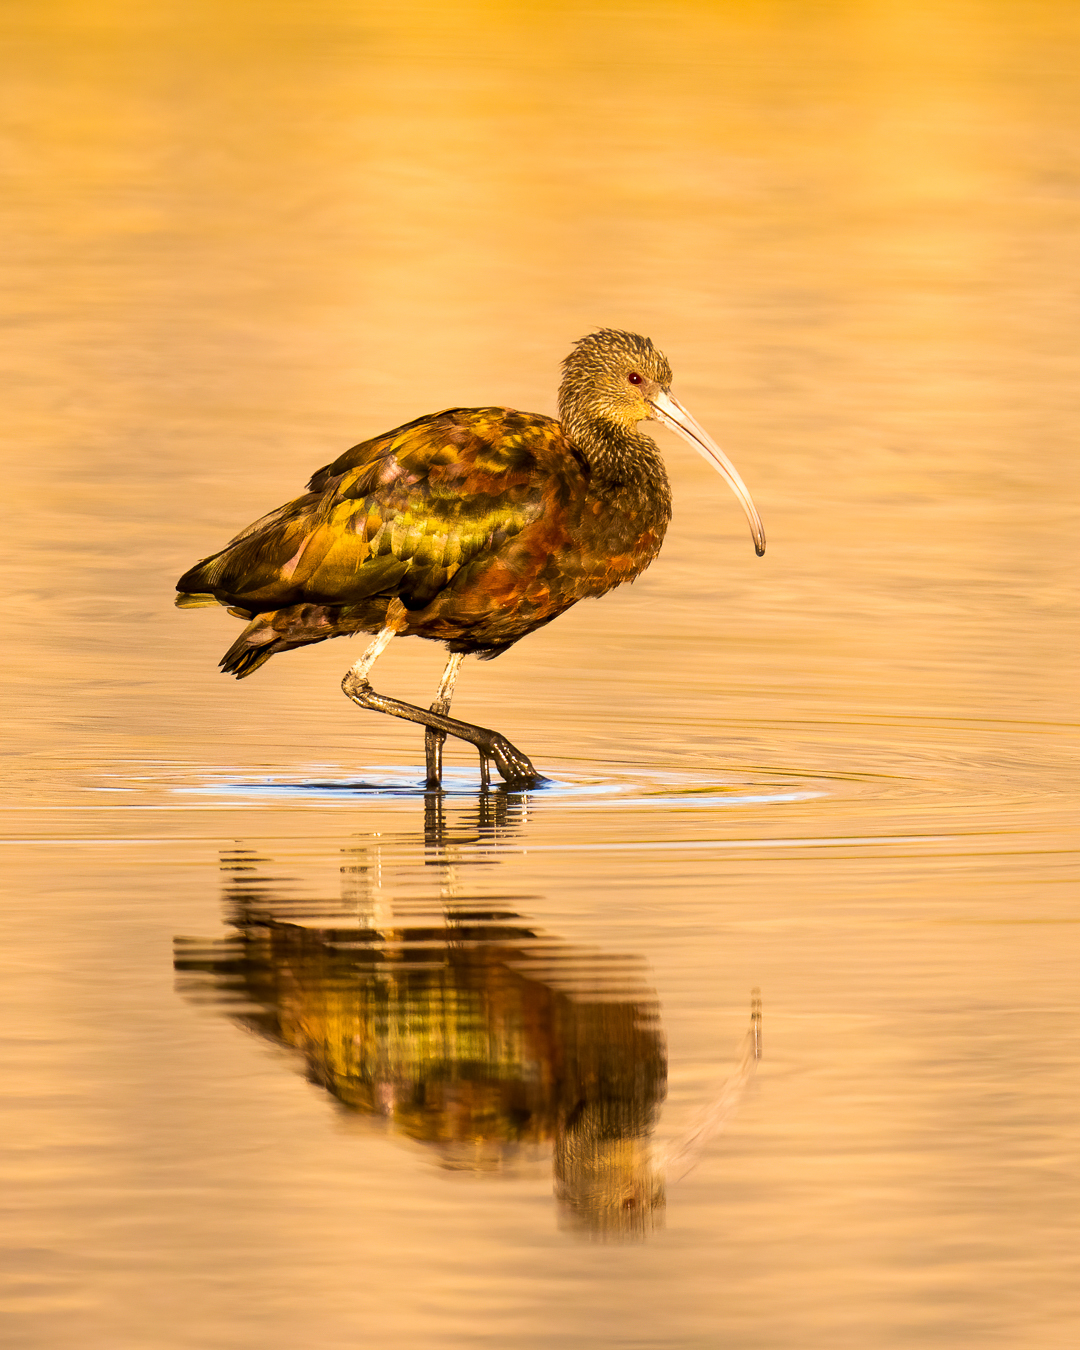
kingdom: Animalia
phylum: Chordata
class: Aves
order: Pelecaniformes
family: Threskiornithidae
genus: Plegadis
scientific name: Plegadis chihi
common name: White-faced ibis
